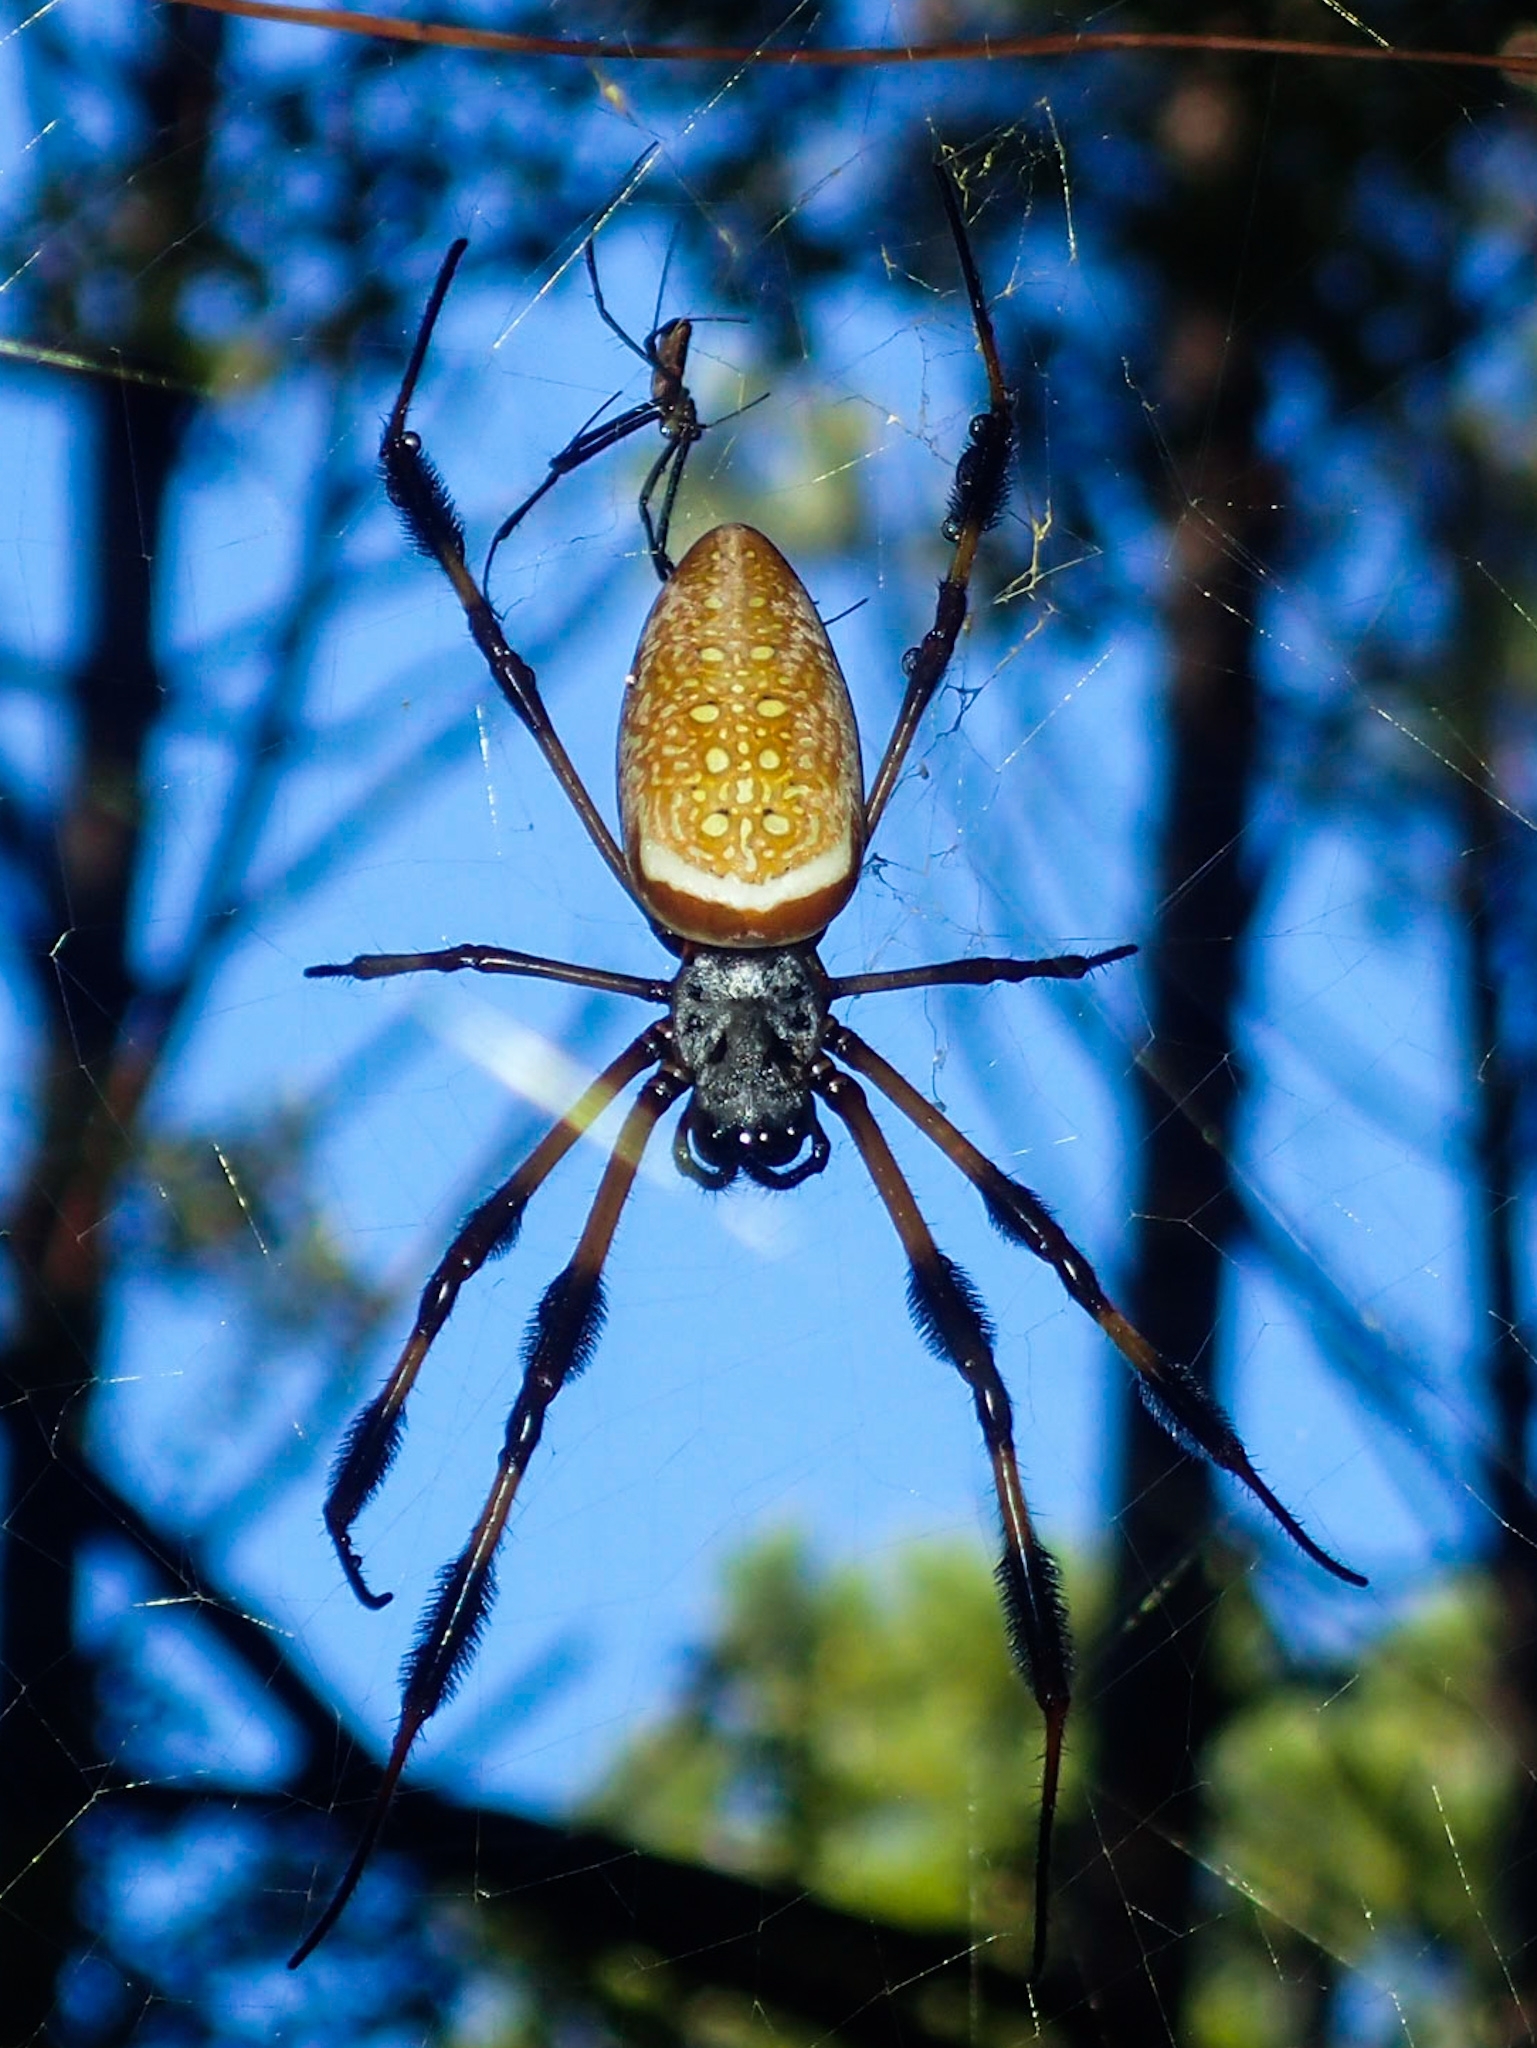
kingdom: Animalia
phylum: Arthropoda
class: Arachnida
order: Araneae
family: Araneidae
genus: Trichonephila
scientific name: Trichonephila clavipes
